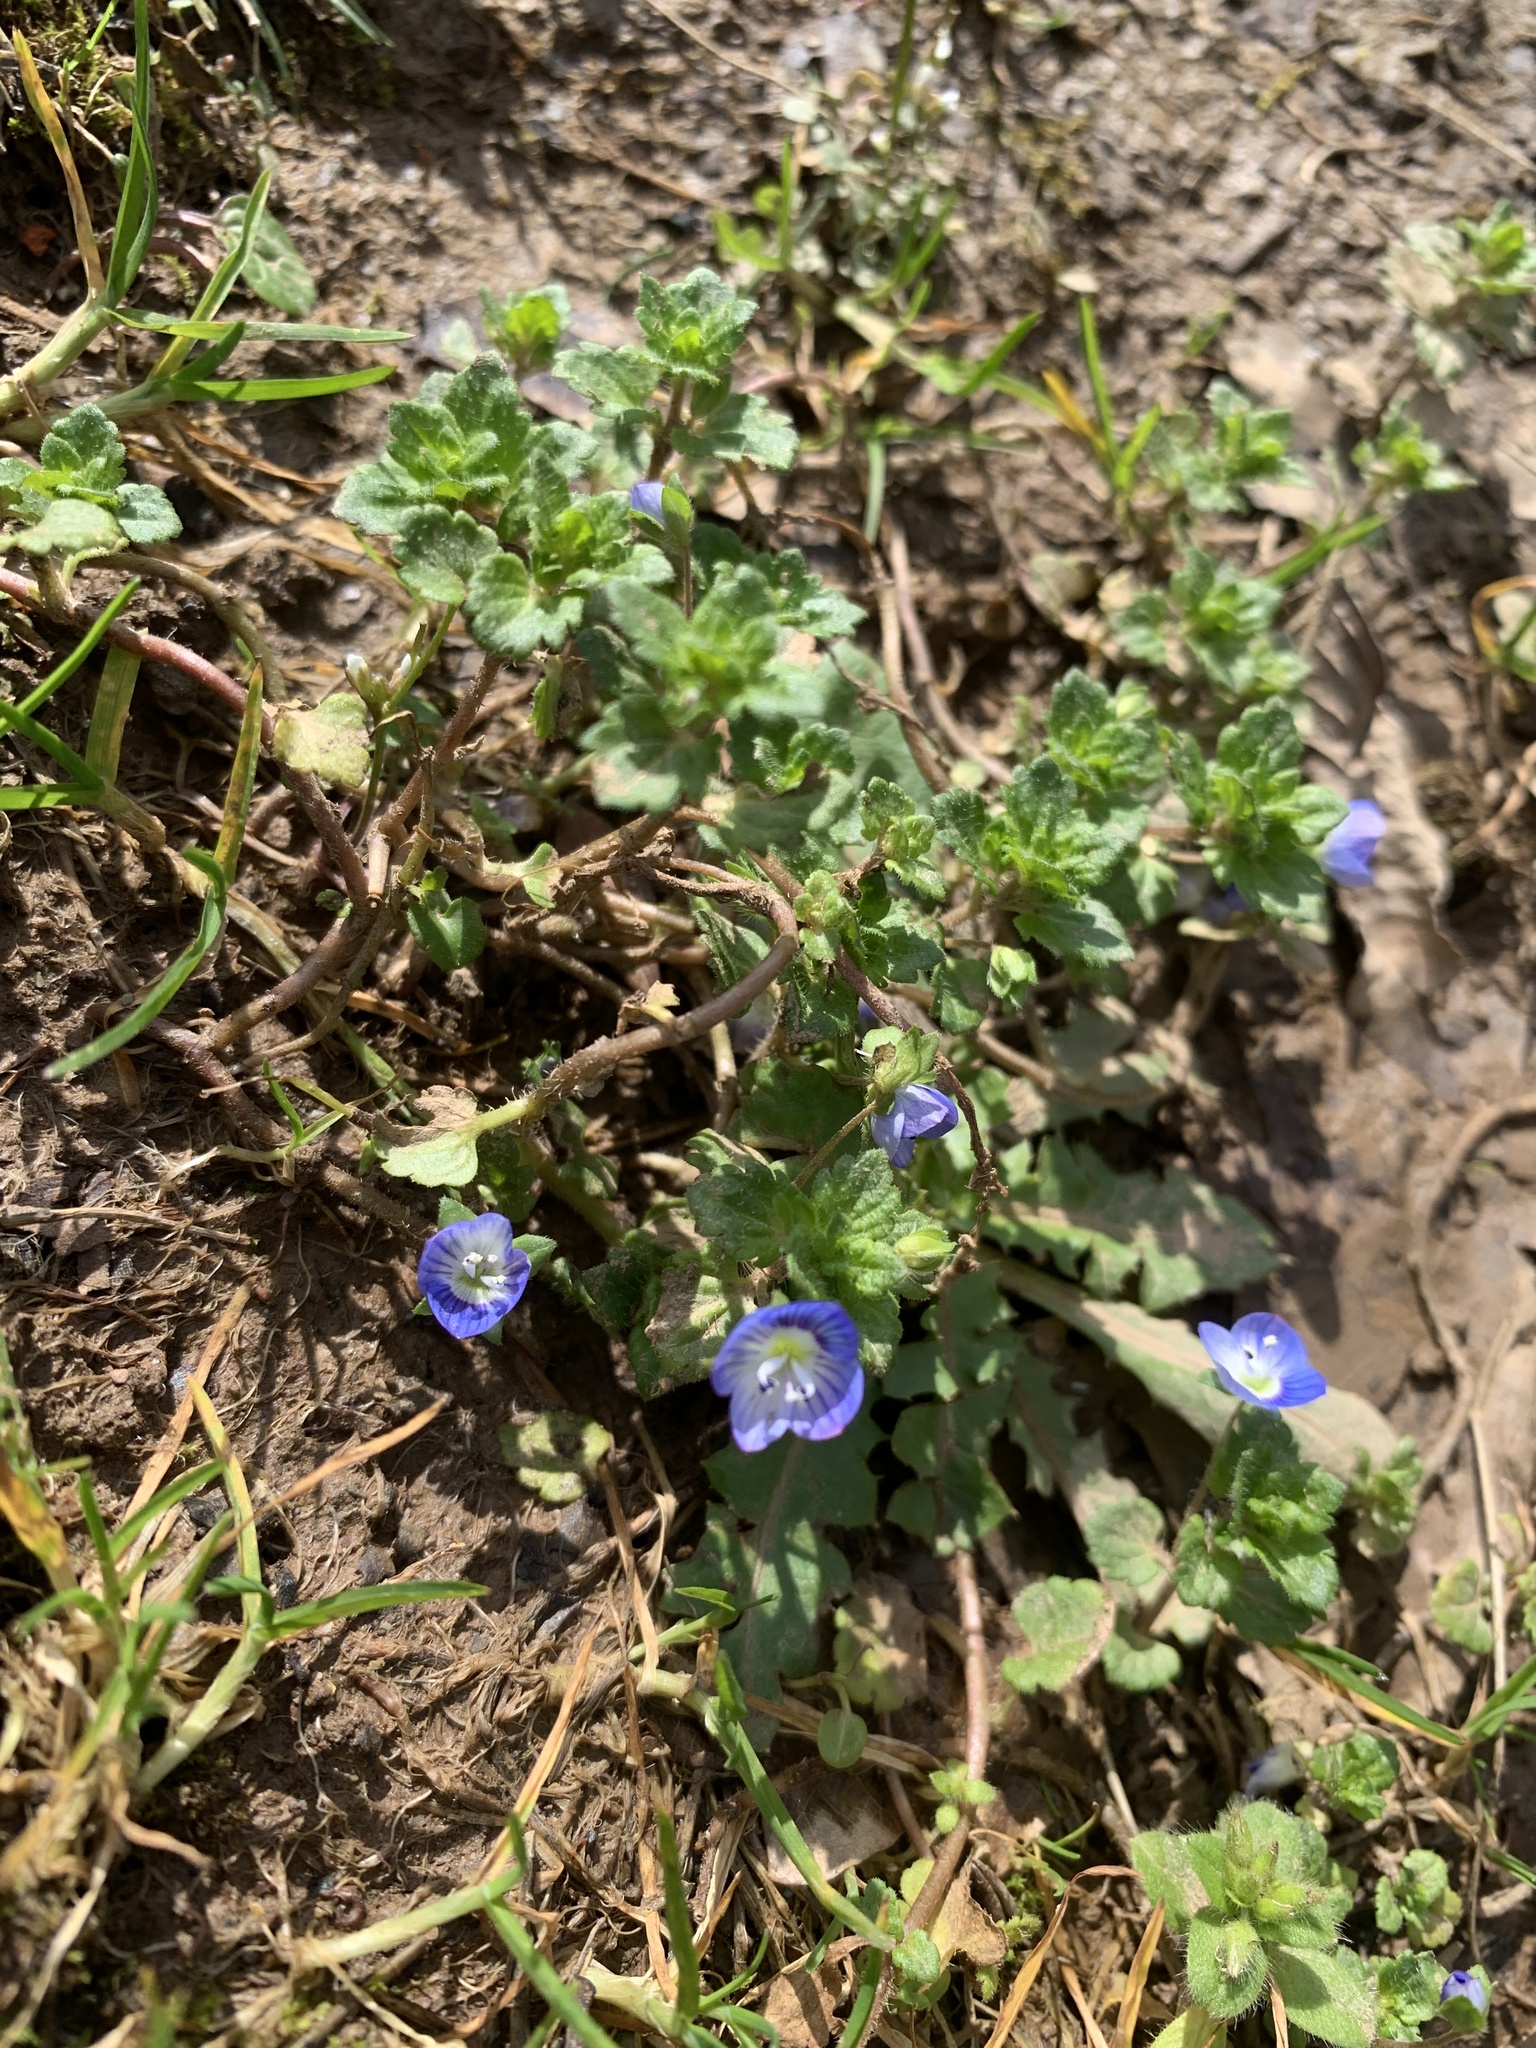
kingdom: Plantae
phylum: Tracheophyta
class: Magnoliopsida
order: Lamiales
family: Plantaginaceae
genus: Veronica
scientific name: Veronica persica
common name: Common field-speedwell
